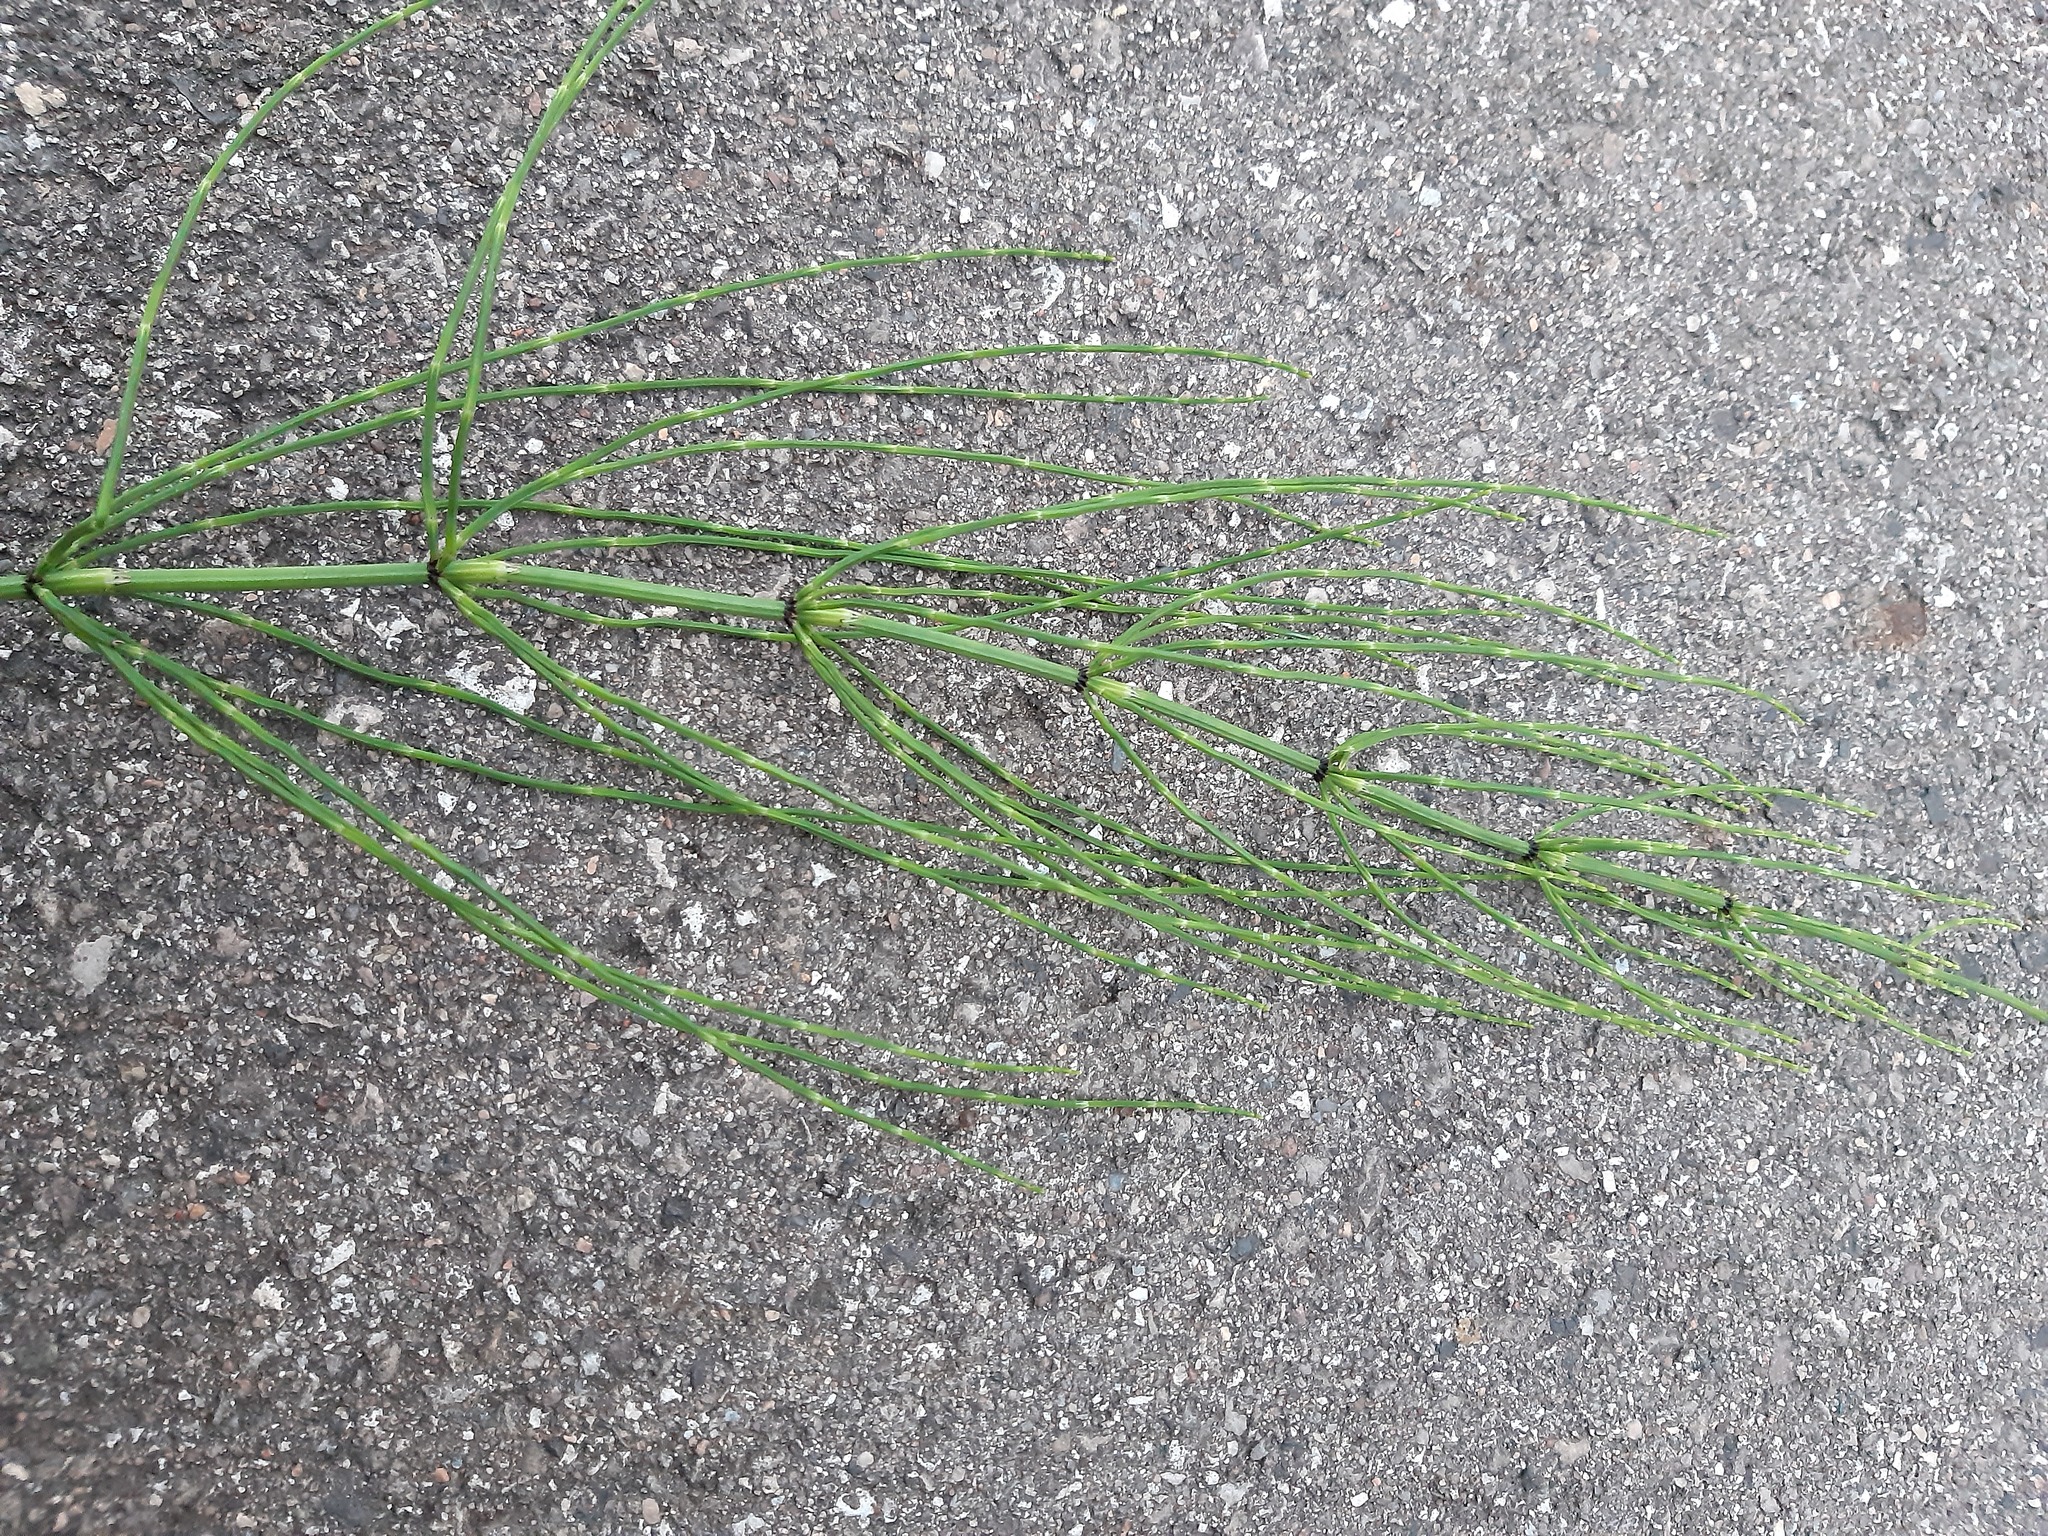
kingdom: Plantae
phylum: Tracheophyta
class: Polypodiopsida
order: Equisetales
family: Equisetaceae
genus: Equisetum
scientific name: Equisetum palustre
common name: Marsh horsetail
